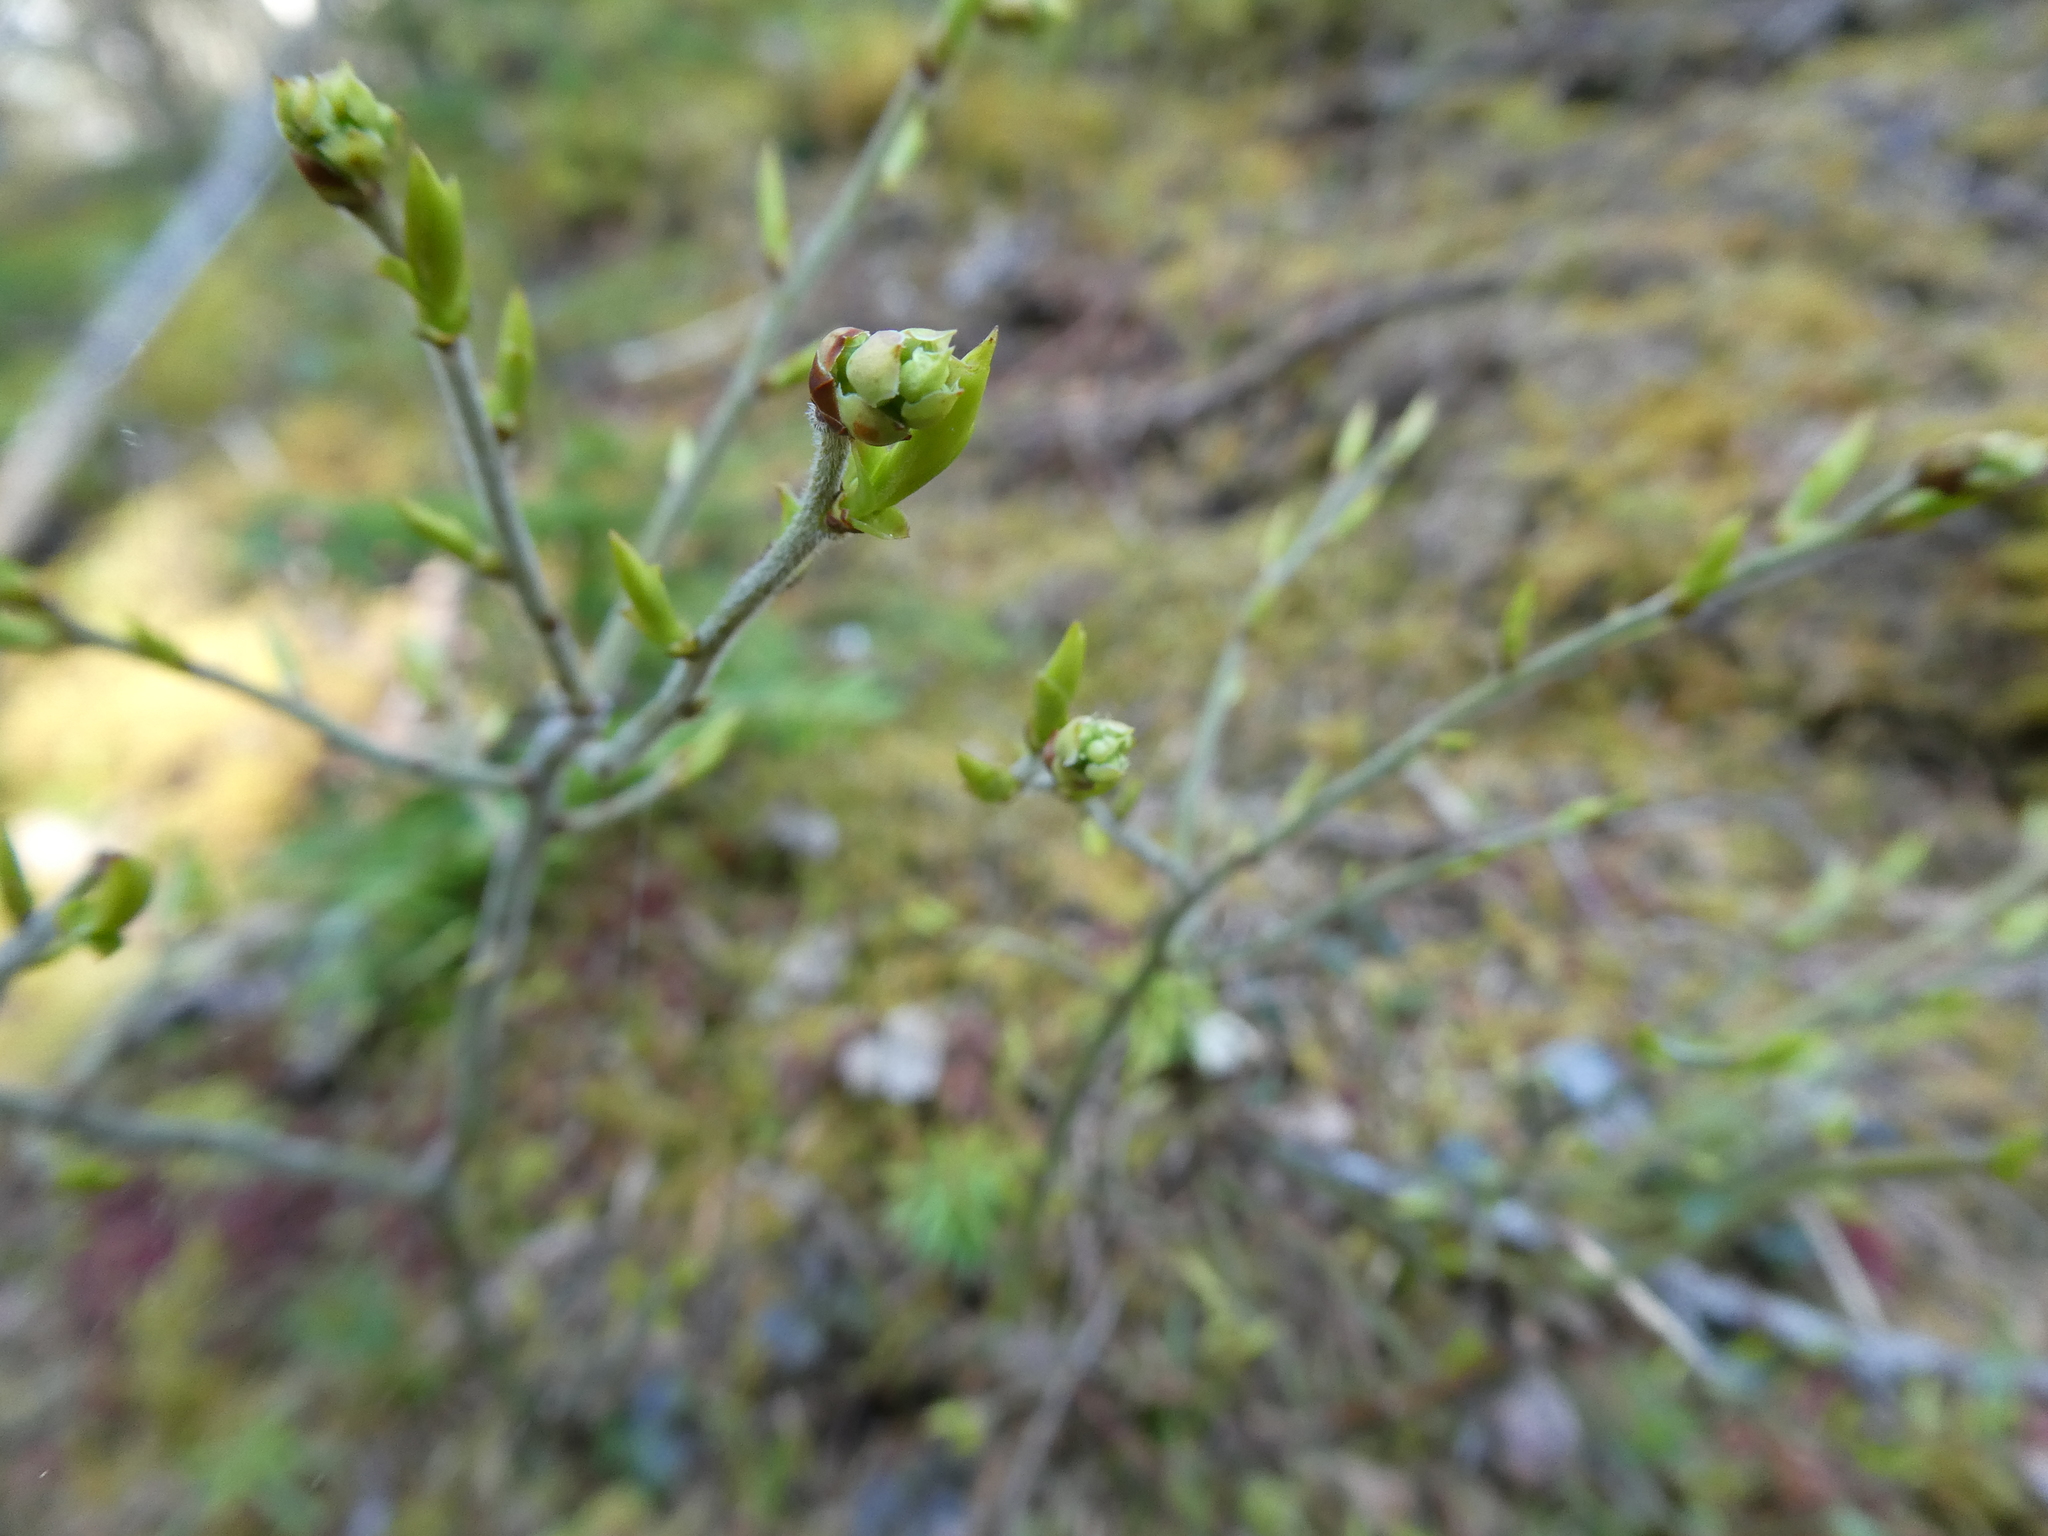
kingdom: Animalia
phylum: Arthropoda
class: Insecta
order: Hymenoptera
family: Pteromalidae
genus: Hemadas
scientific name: Hemadas nubilipennis
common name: Blueberry stem gall wasp
